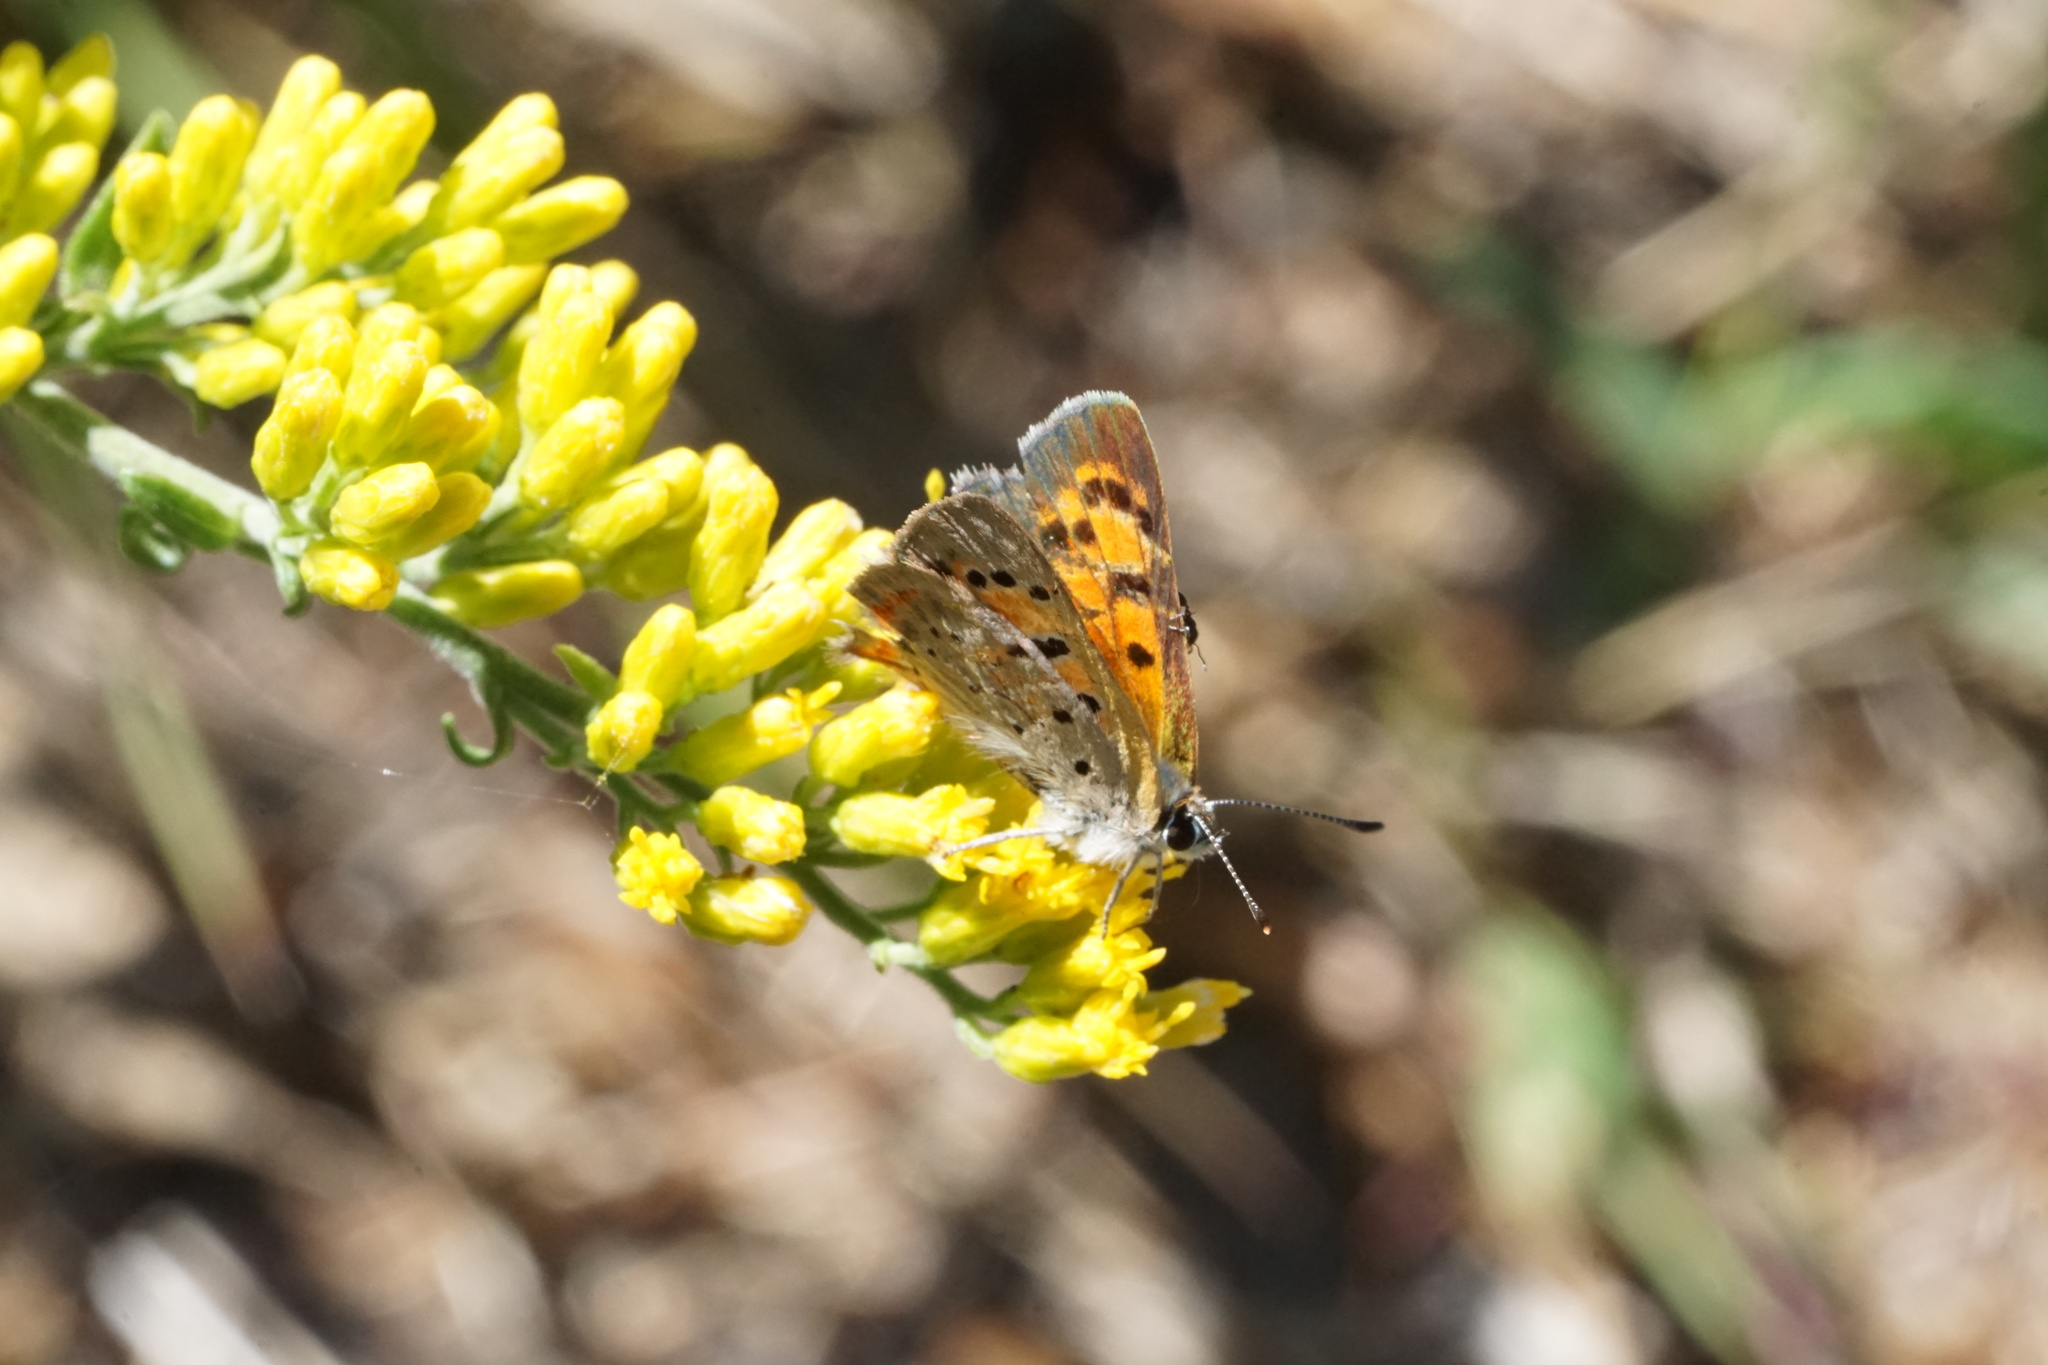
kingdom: Animalia
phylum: Arthropoda
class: Insecta
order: Lepidoptera
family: Lycaenidae
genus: Lycaena
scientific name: Lycaena hypophlaeas
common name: American copper
